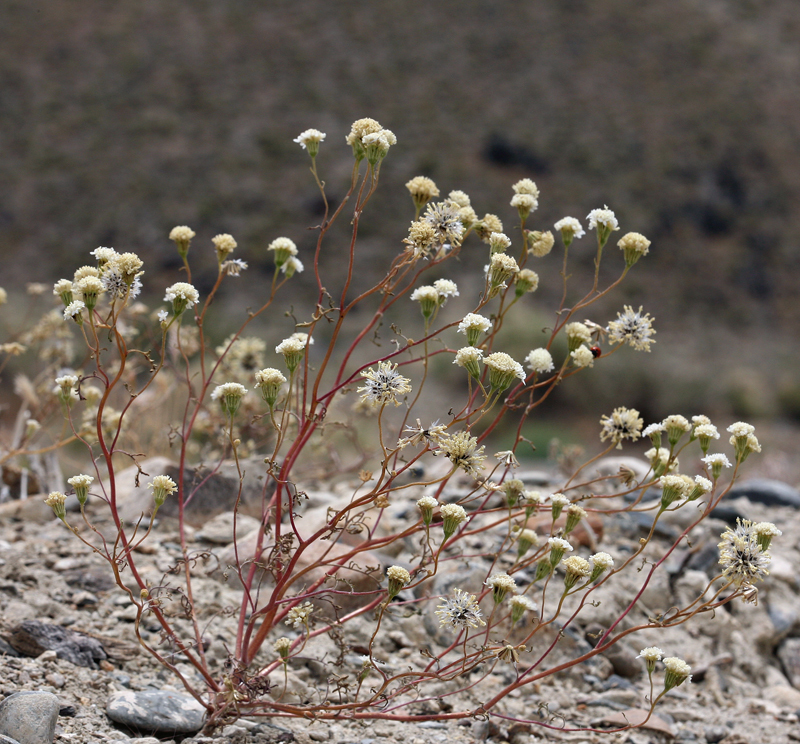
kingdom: Plantae
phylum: Tracheophyta
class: Magnoliopsida
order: Asterales
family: Asteraceae
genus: Chaenactis
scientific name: Chaenactis stevioides
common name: Desert pincushion
